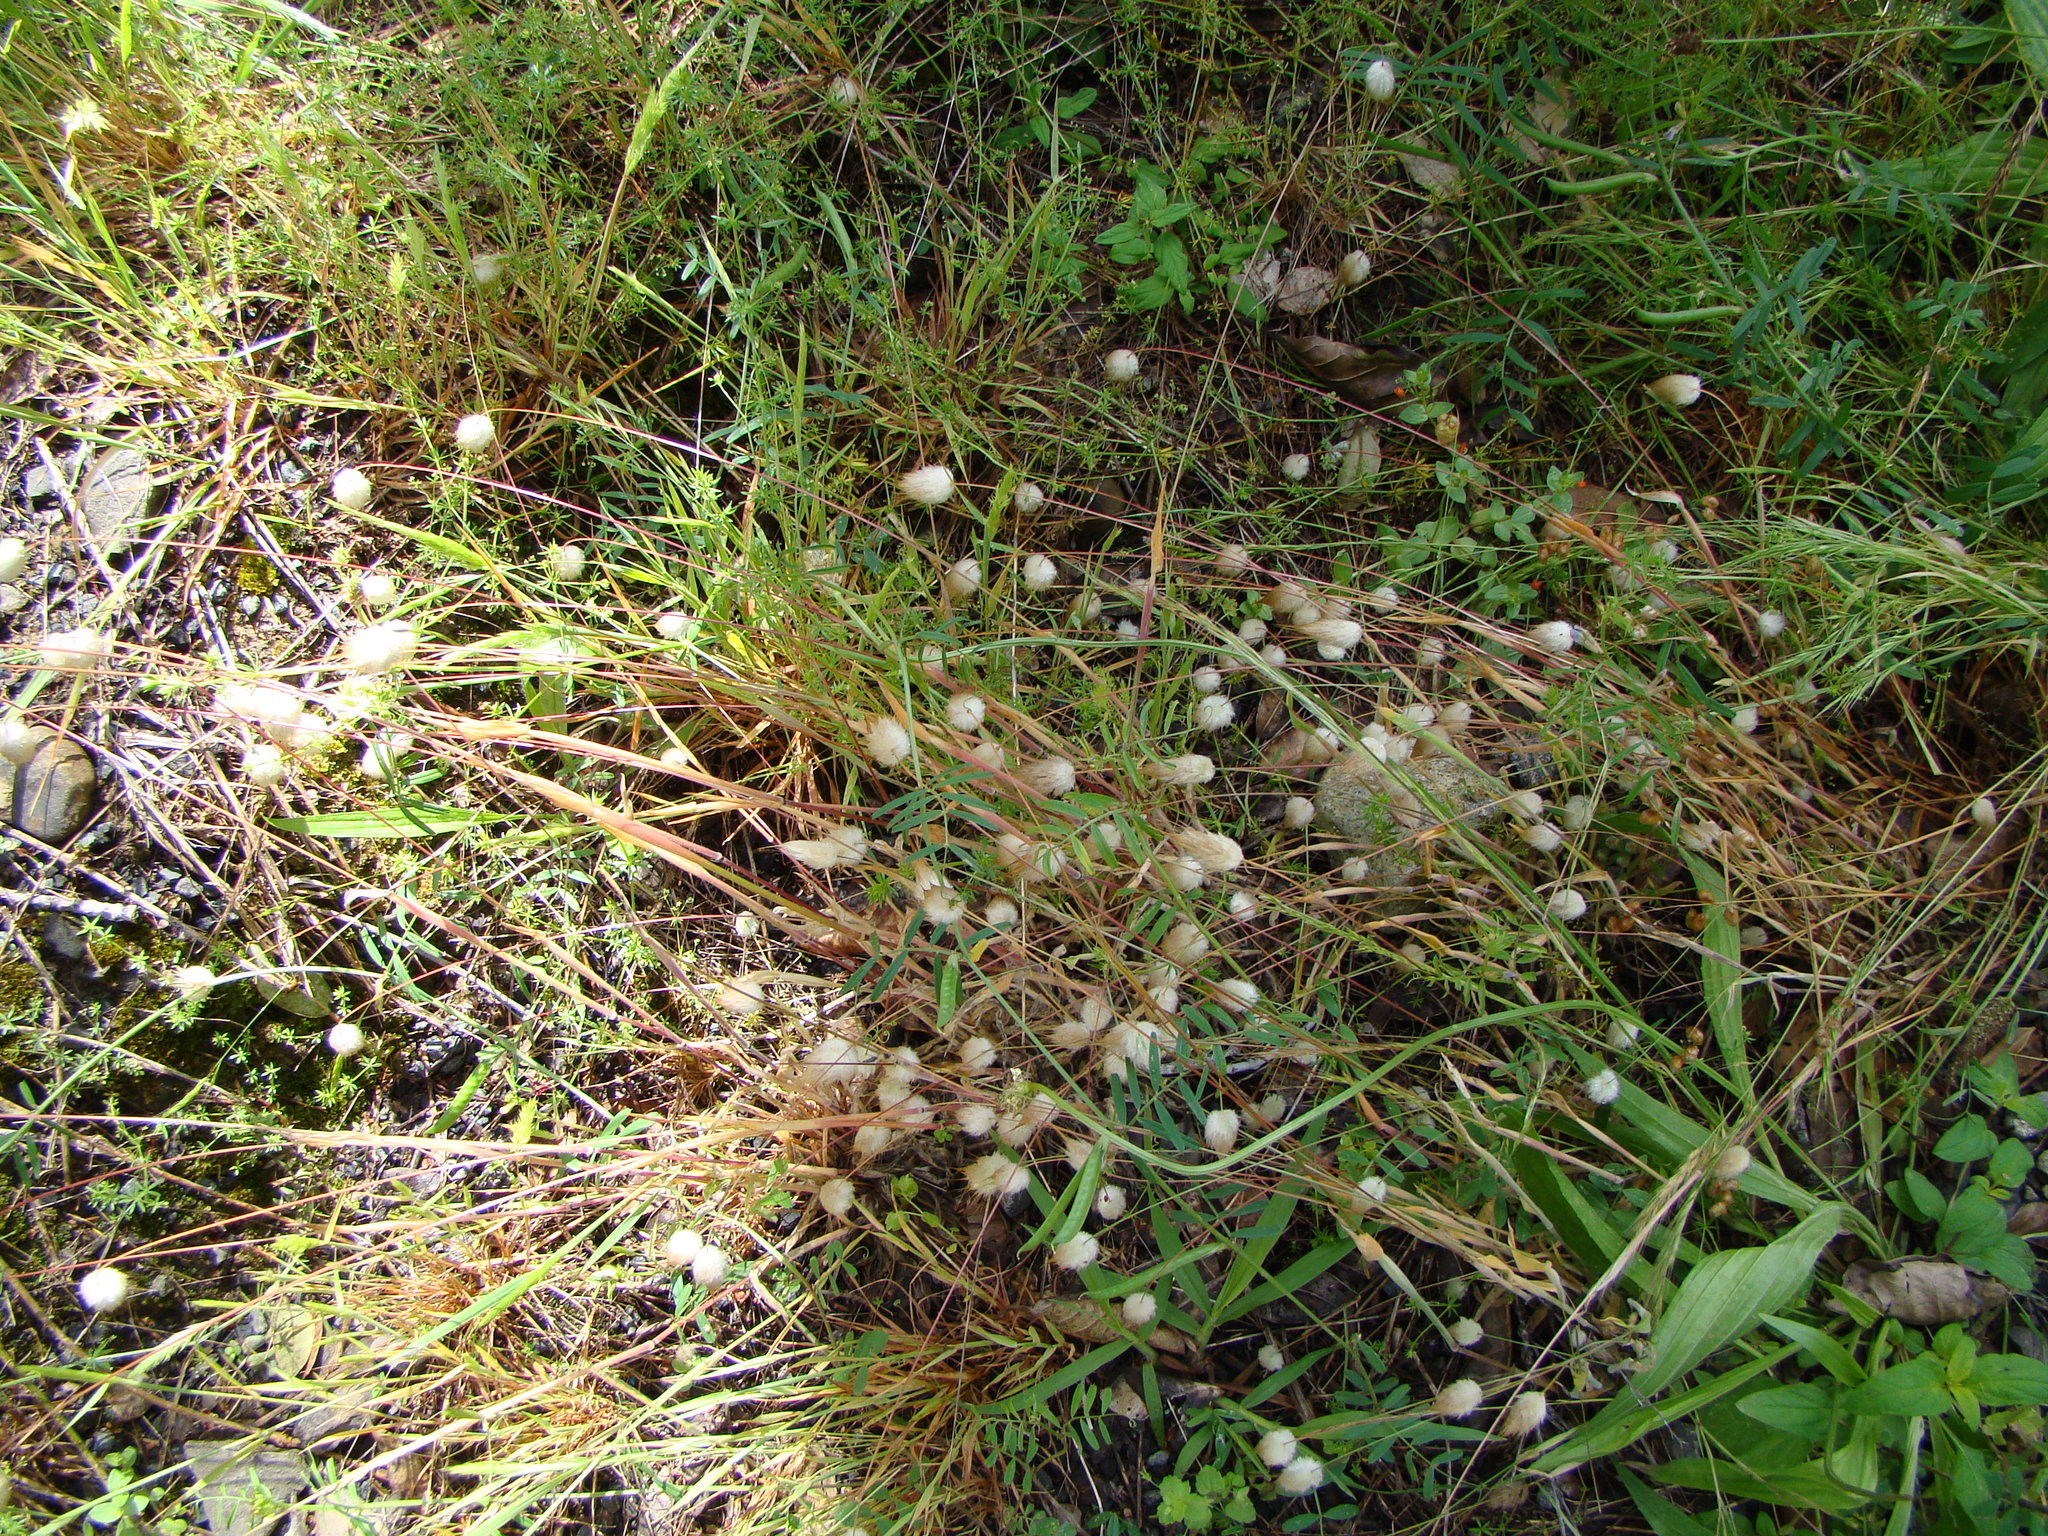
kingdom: Plantae
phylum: Tracheophyta
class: Liliopsida
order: Poales
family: Poaceae
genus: Lagurus
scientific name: Lagurus ovatus
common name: Hare's-tail
